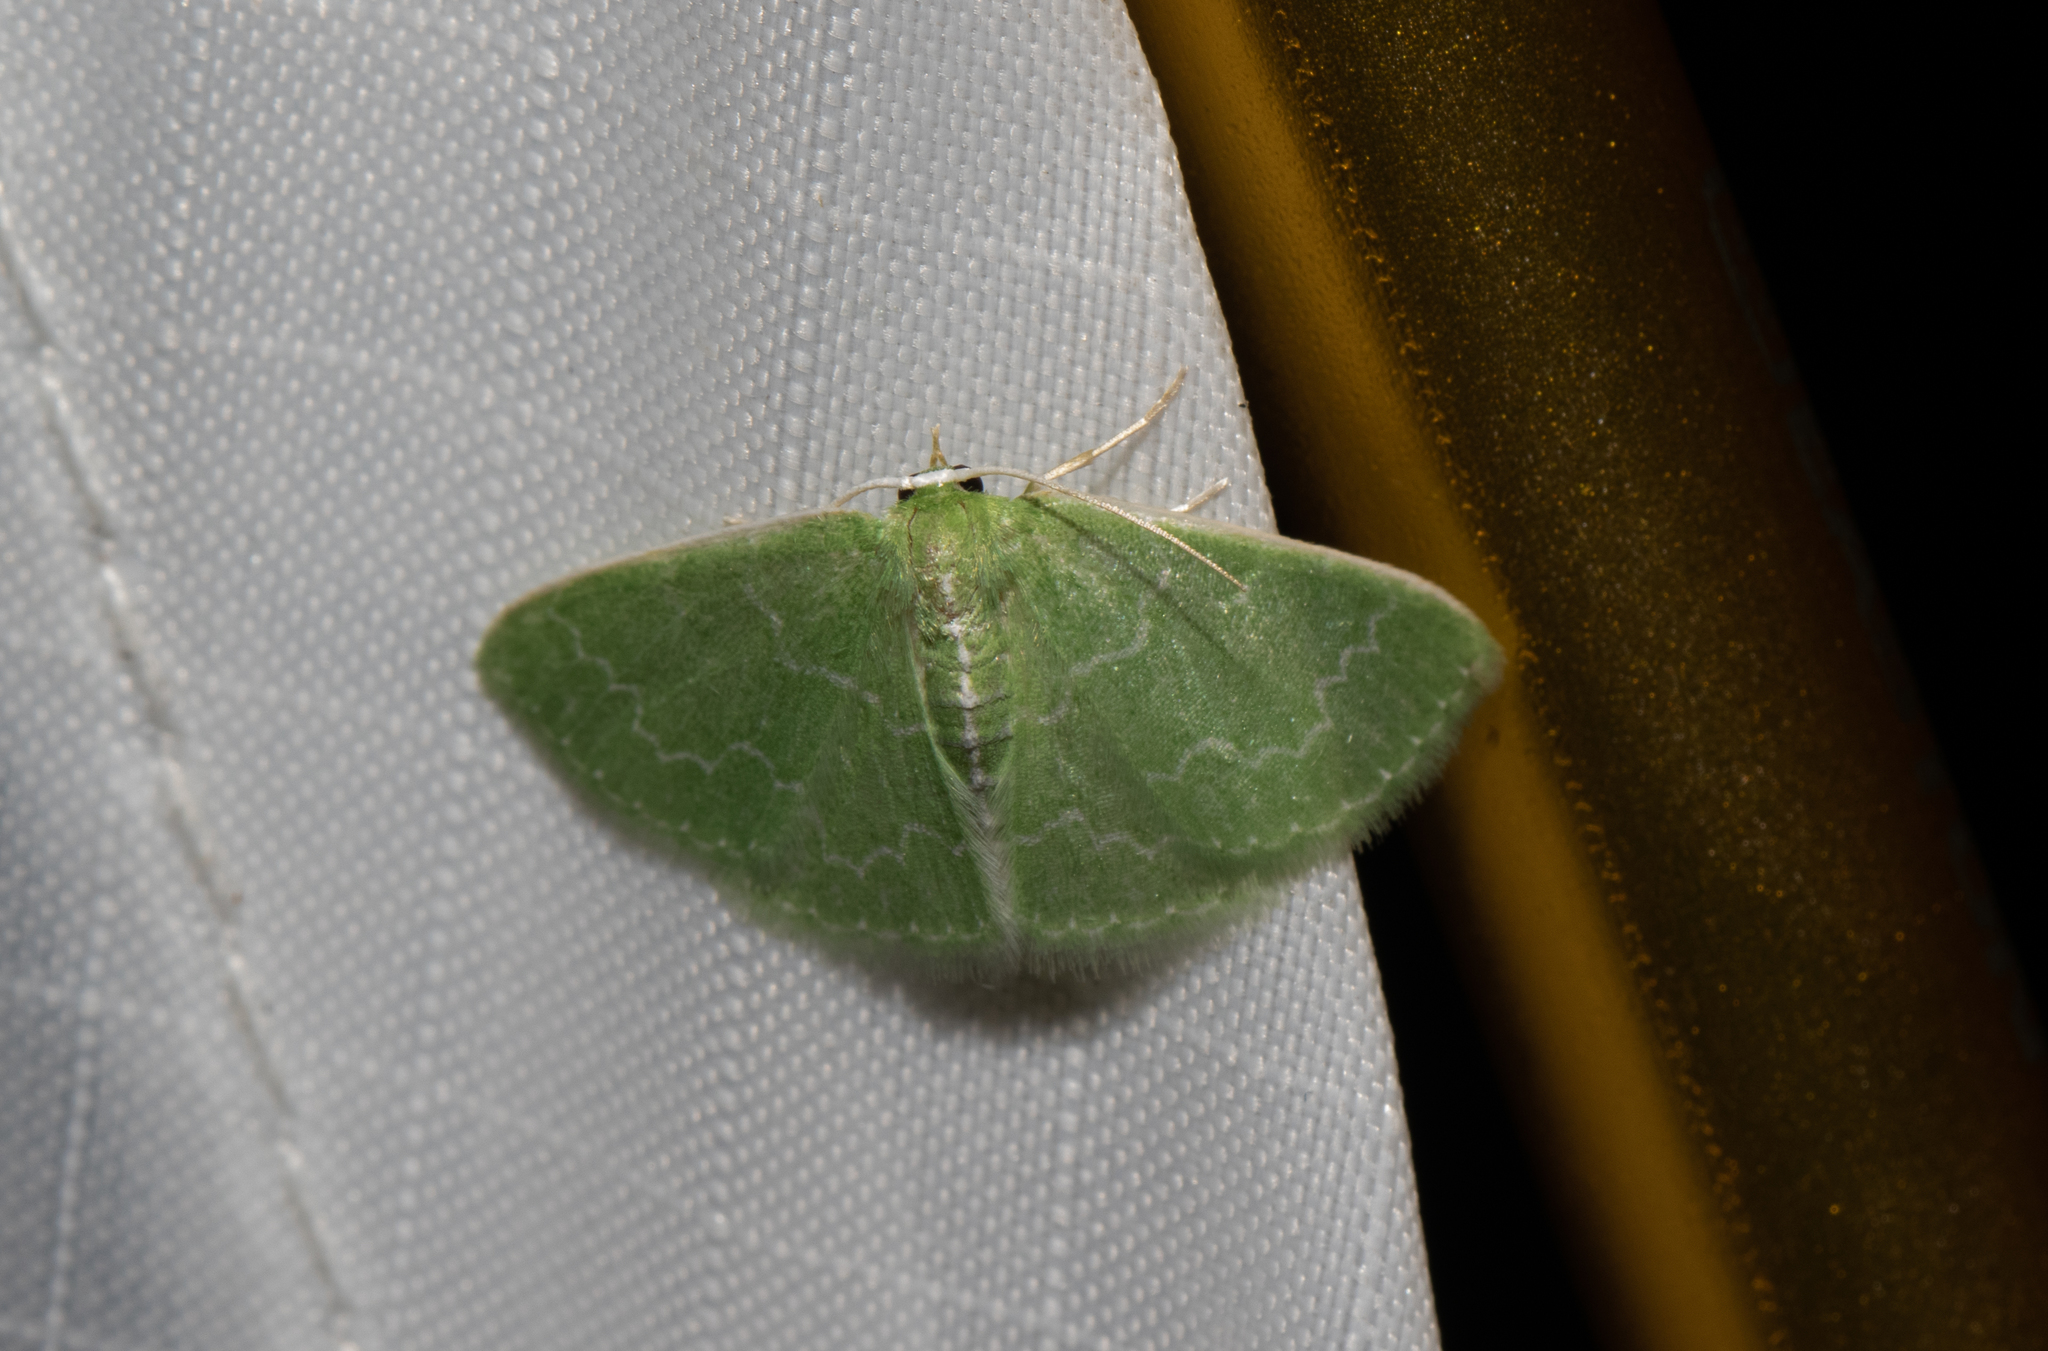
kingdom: Animalia
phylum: Arthropoda
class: Insecta
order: Lepidoptera
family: Geometridae
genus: Synchlora
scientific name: Synchlora frondaria
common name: Southern emerald
